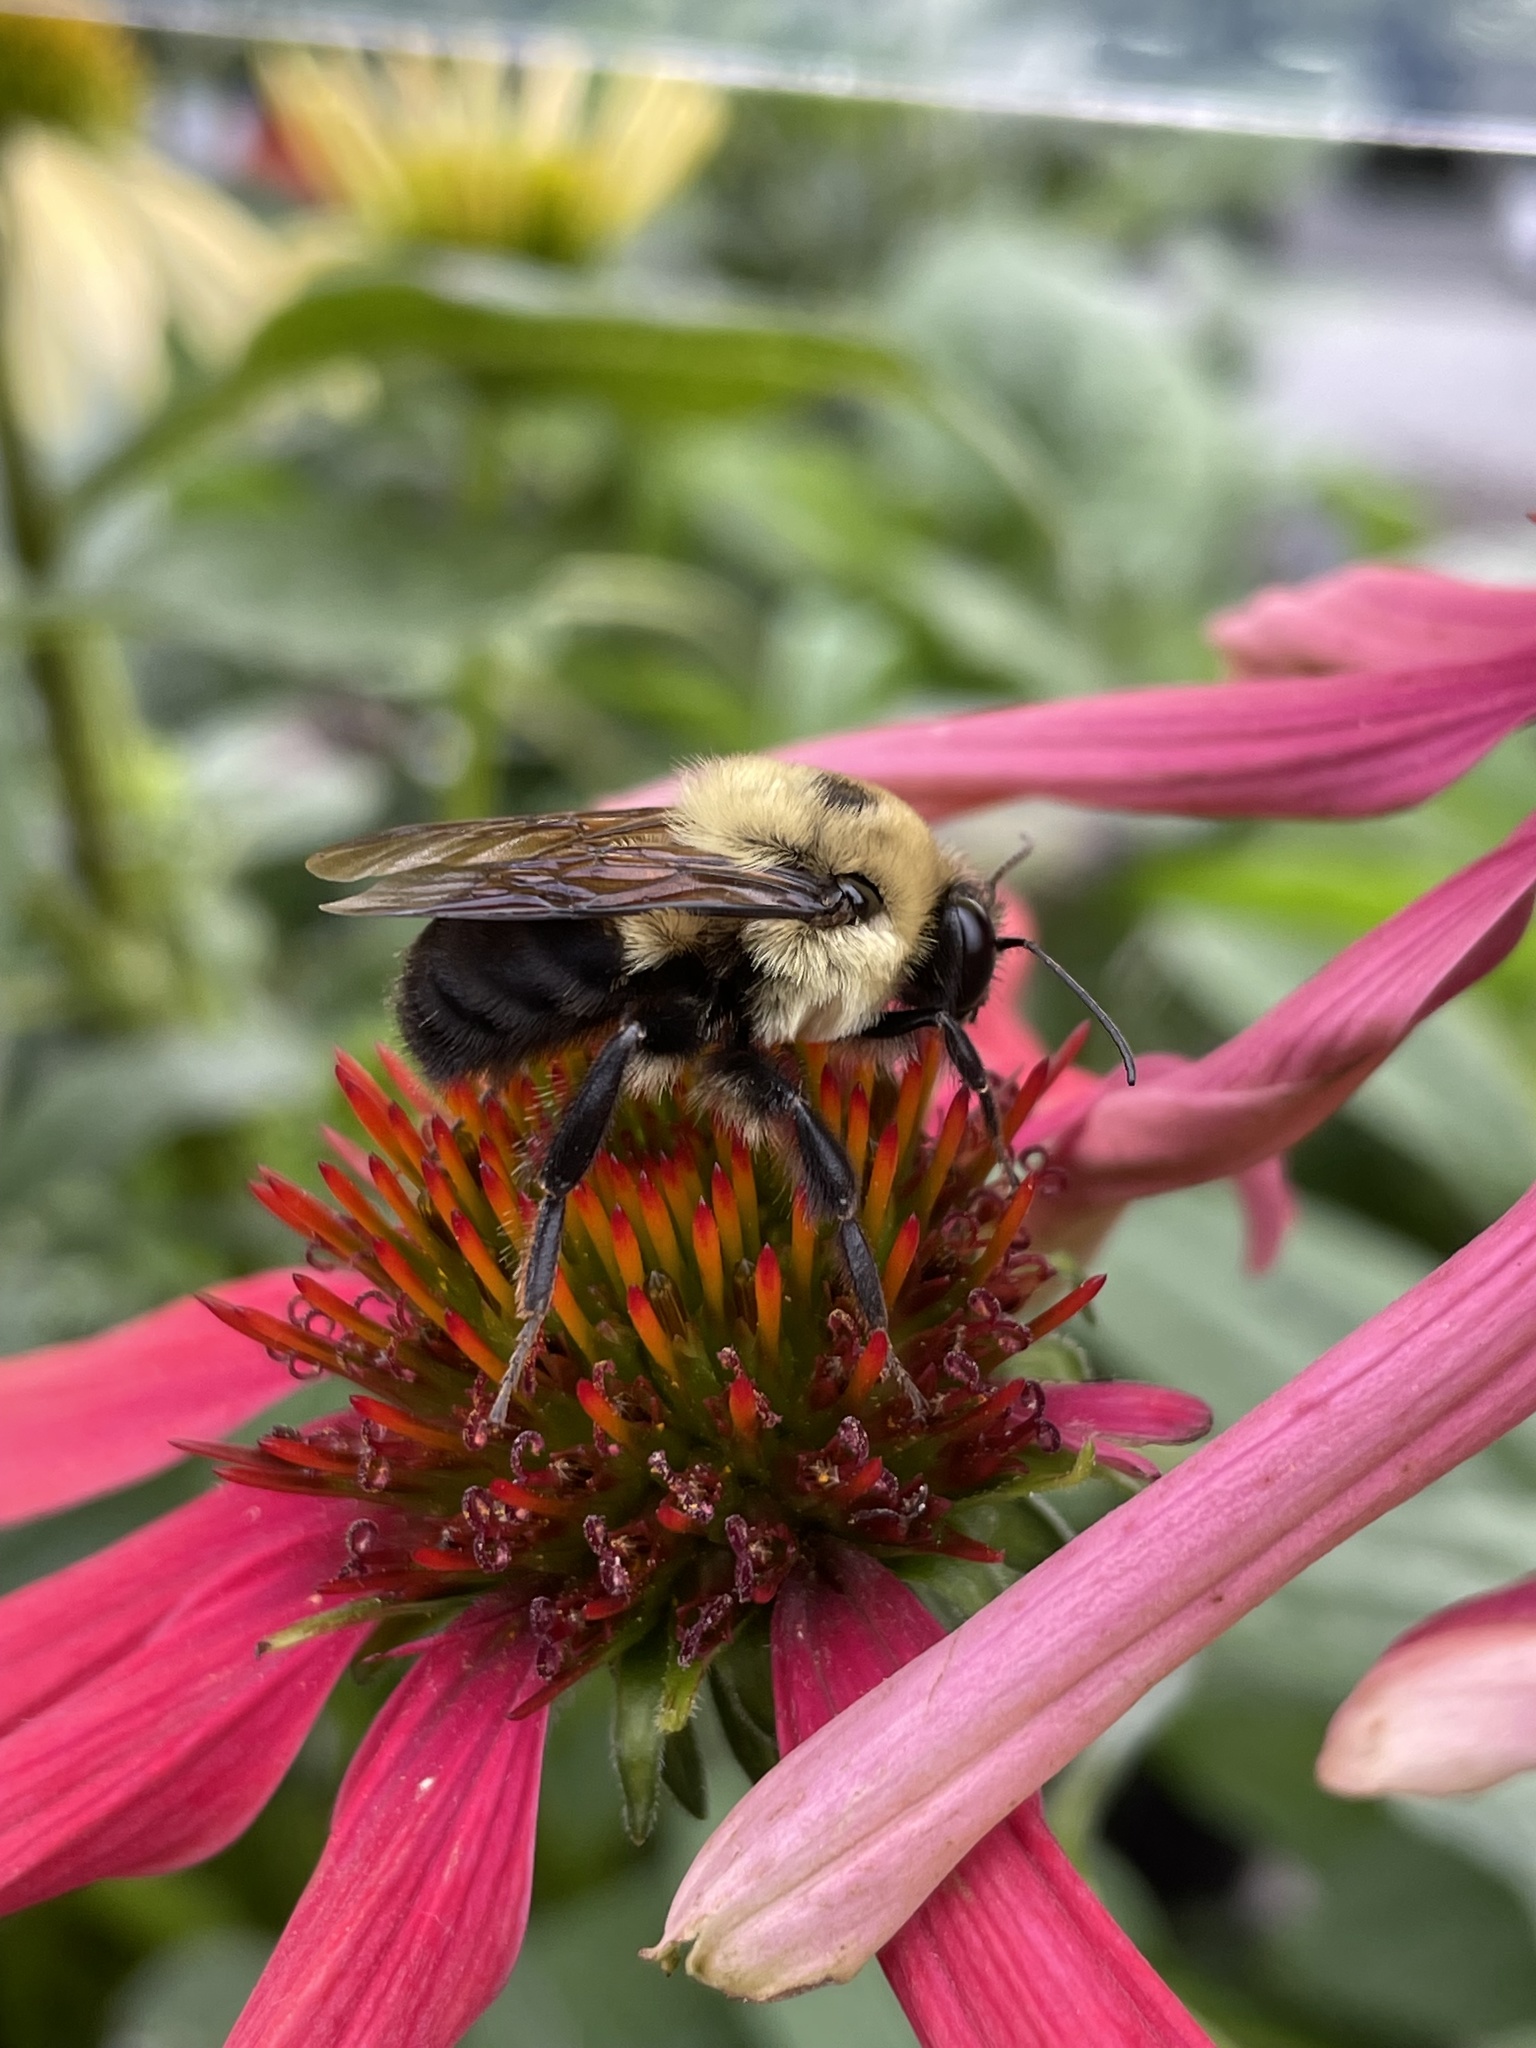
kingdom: Animalia
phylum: Arthropoda
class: Insecta
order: Hymenoptera
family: Apidae
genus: Bombus
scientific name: Bombus griseocollis
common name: Brown-belted bumble bee
